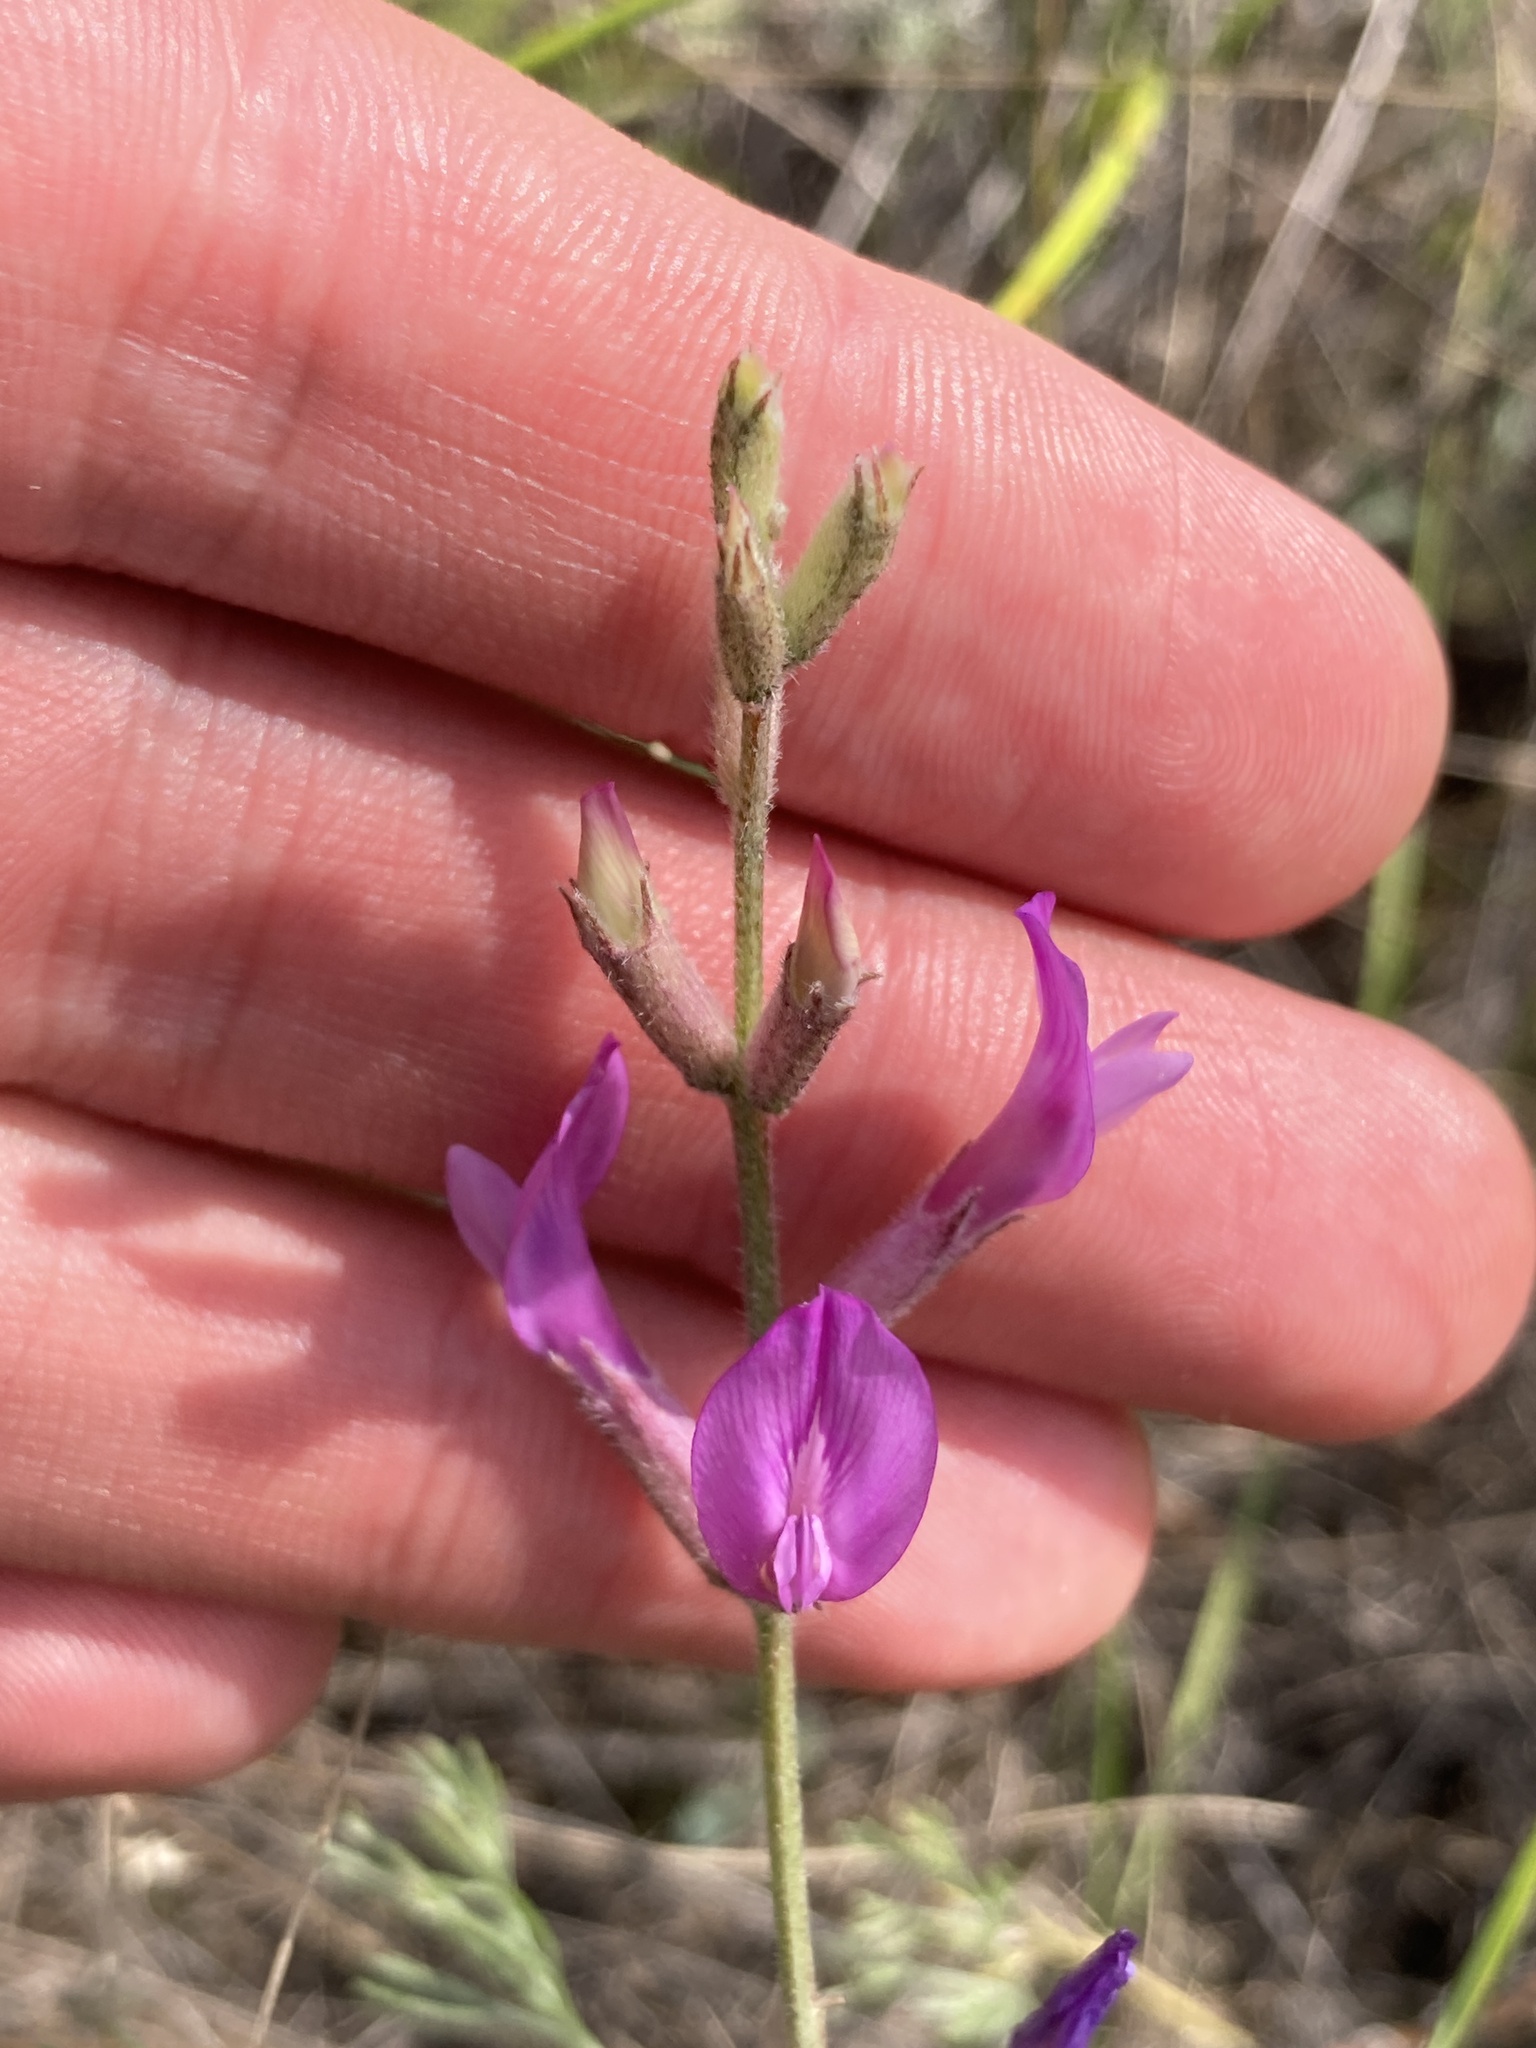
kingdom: Plantae
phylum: Tracheophyta
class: Magnoliopsida
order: Fabales
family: Fabaceae
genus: Astragalus
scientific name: Astragalus varius
